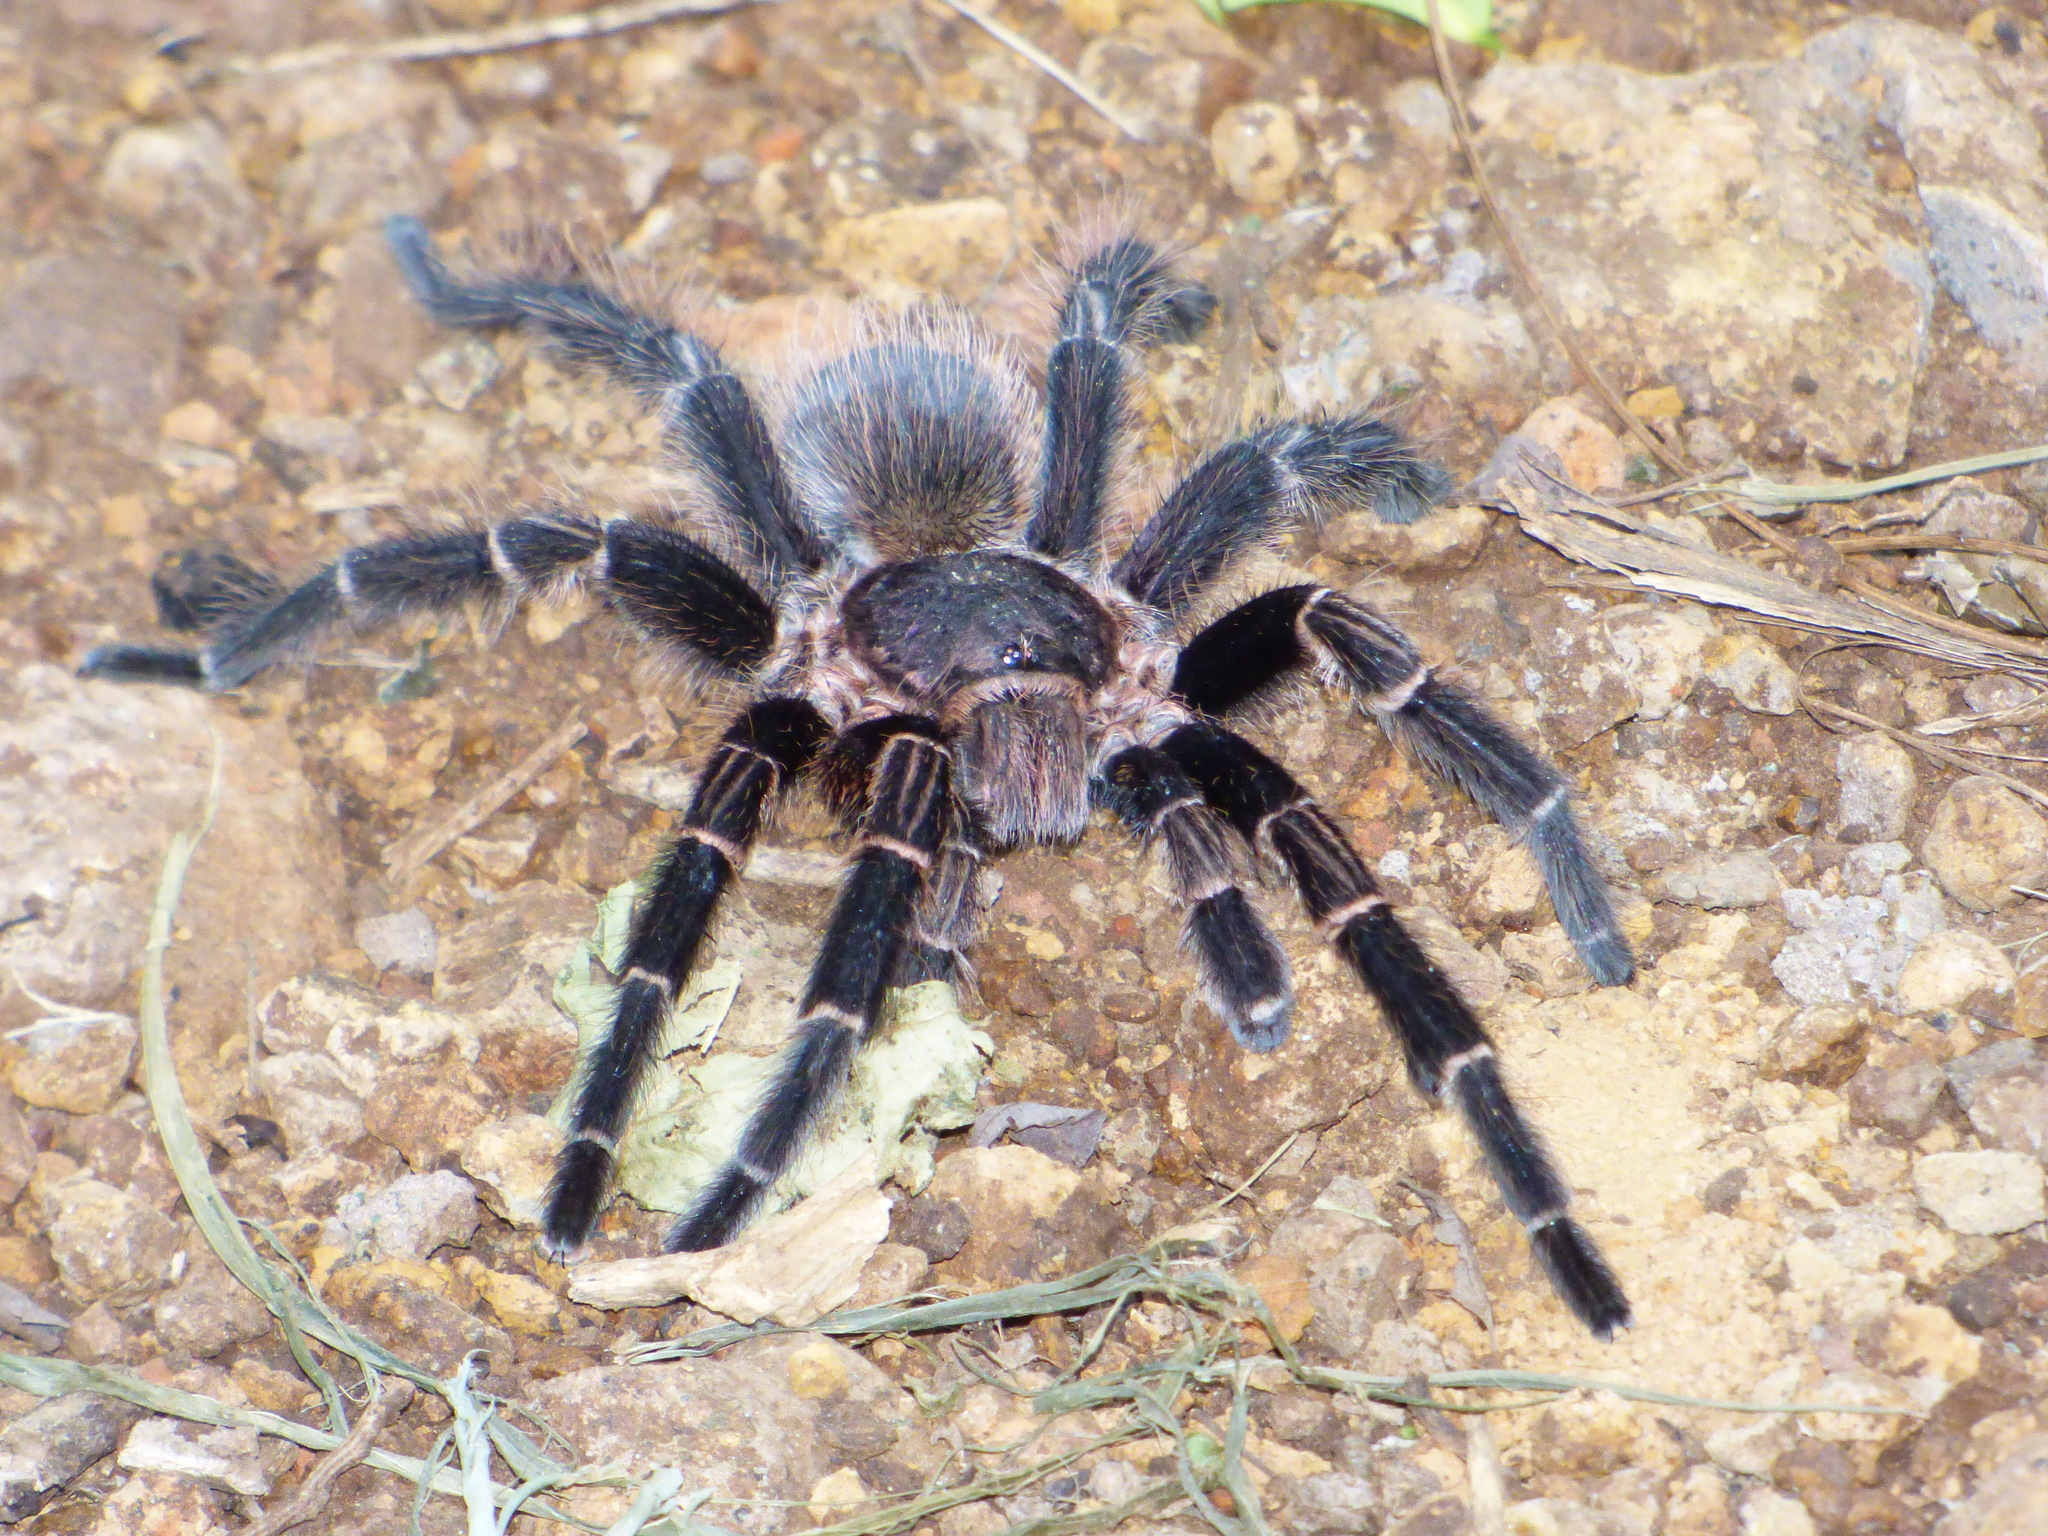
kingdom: Animalia
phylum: Arthropoda
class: Arachnida
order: Araneae
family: Theraphosidae
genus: Vitalius
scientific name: Vitalius roseus
